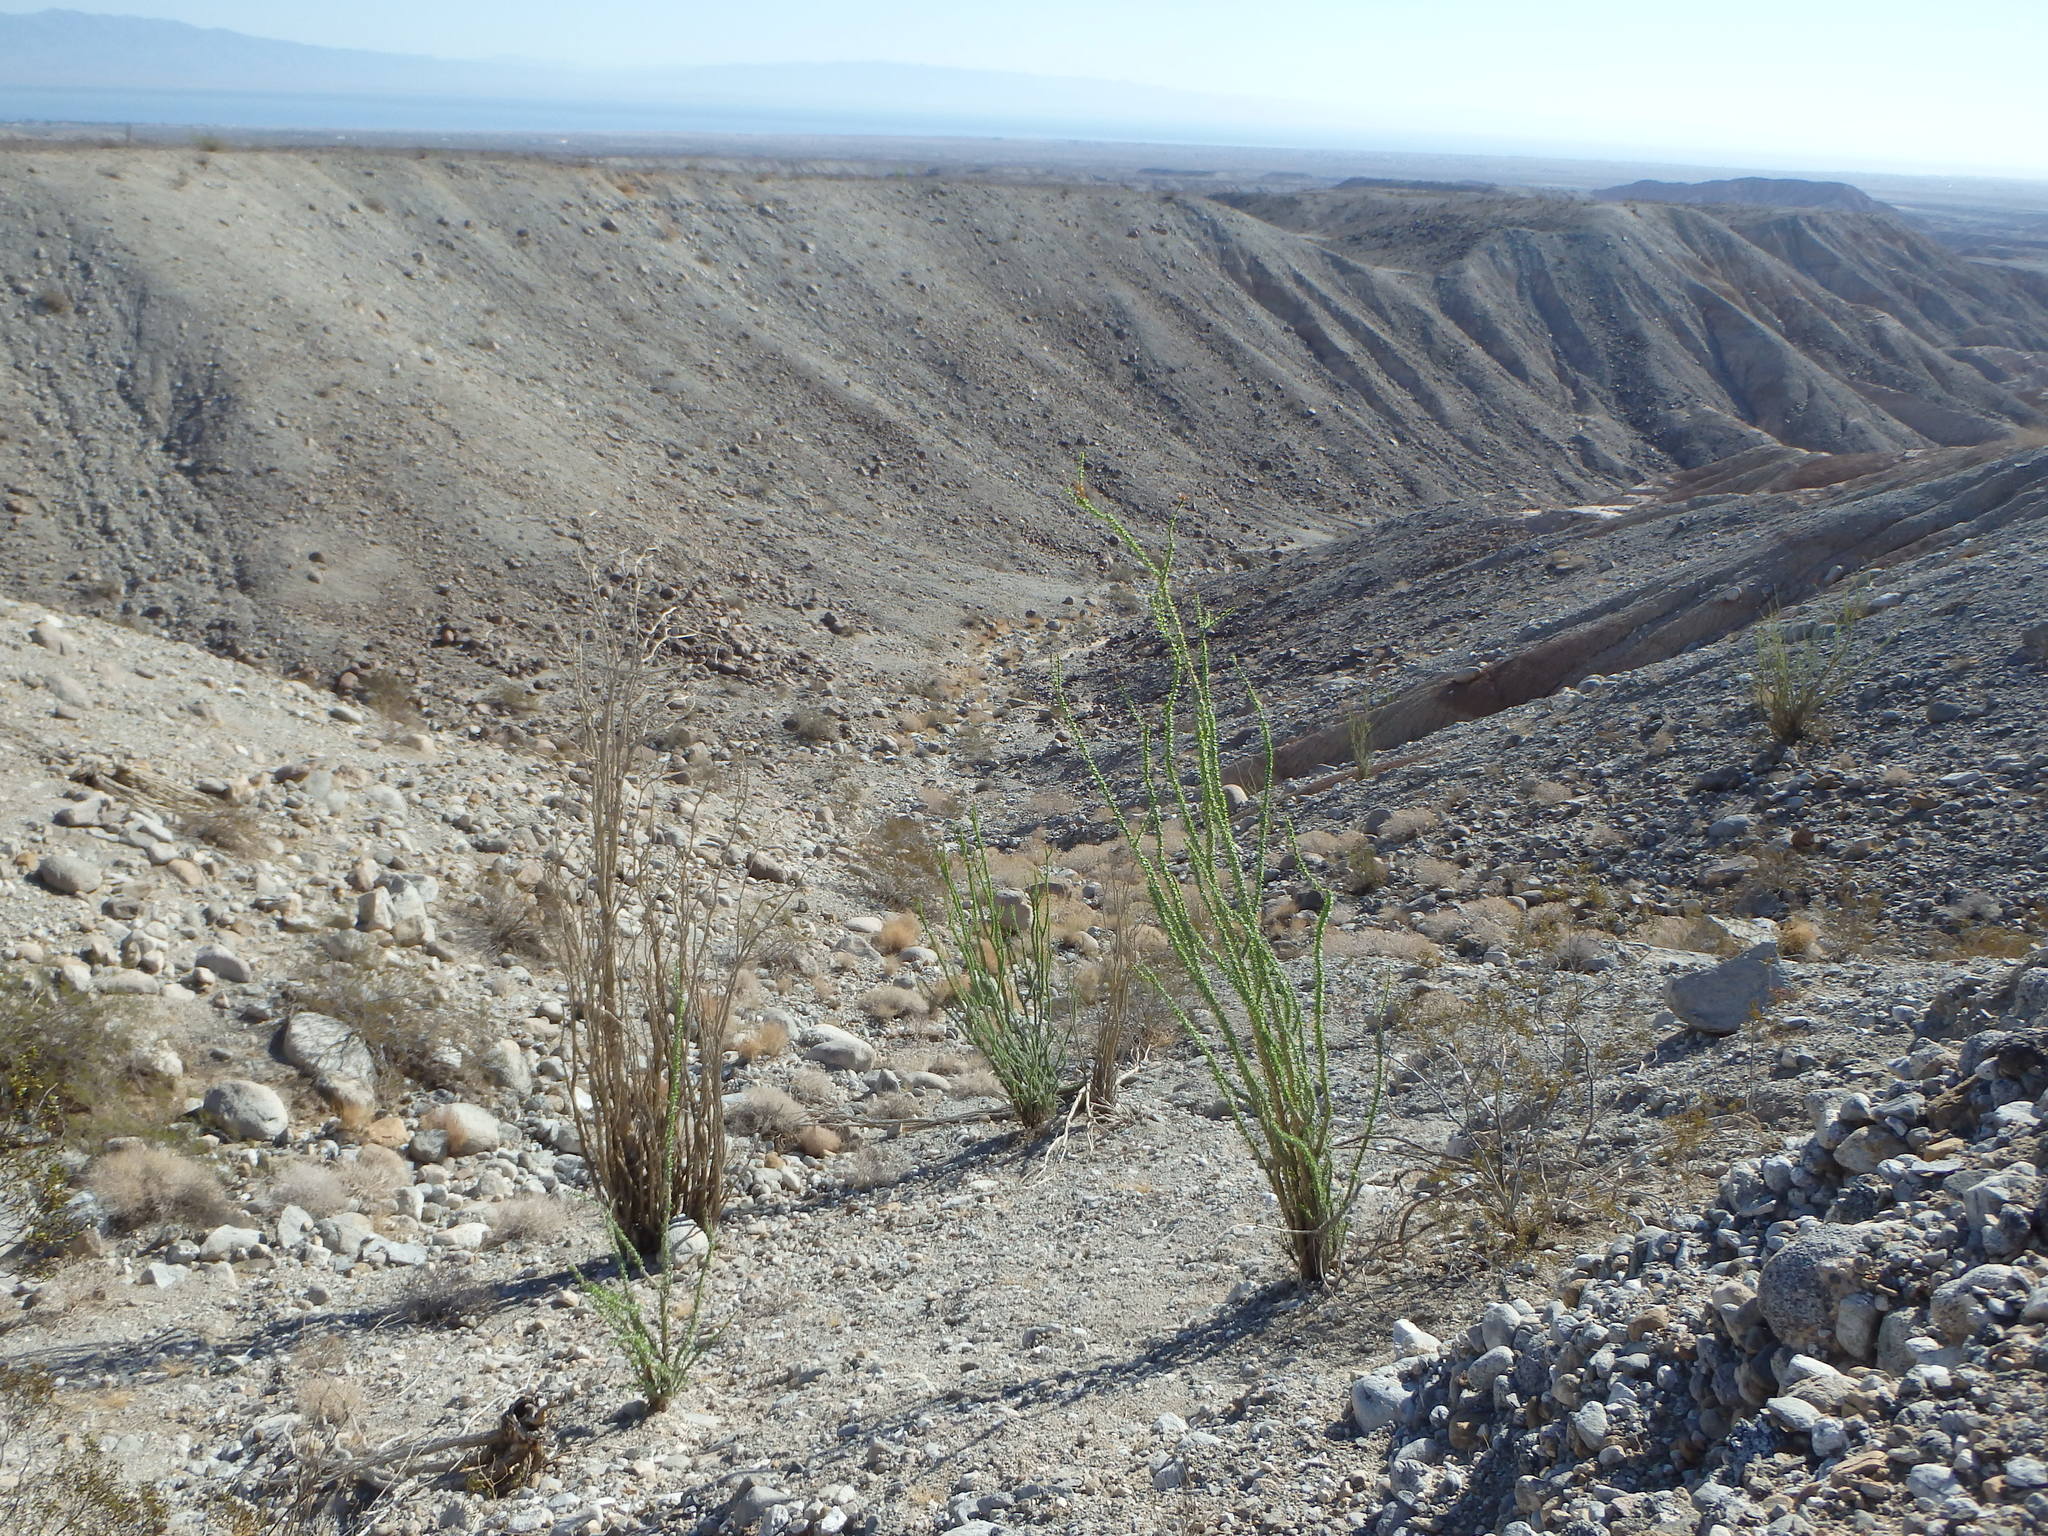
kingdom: Plantae
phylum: Tracheophyta
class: Magnoliopsida
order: Ericales
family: Fouquieriaceae
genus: Fouquieria
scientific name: Fouquieria splendens
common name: Vine-cactus
